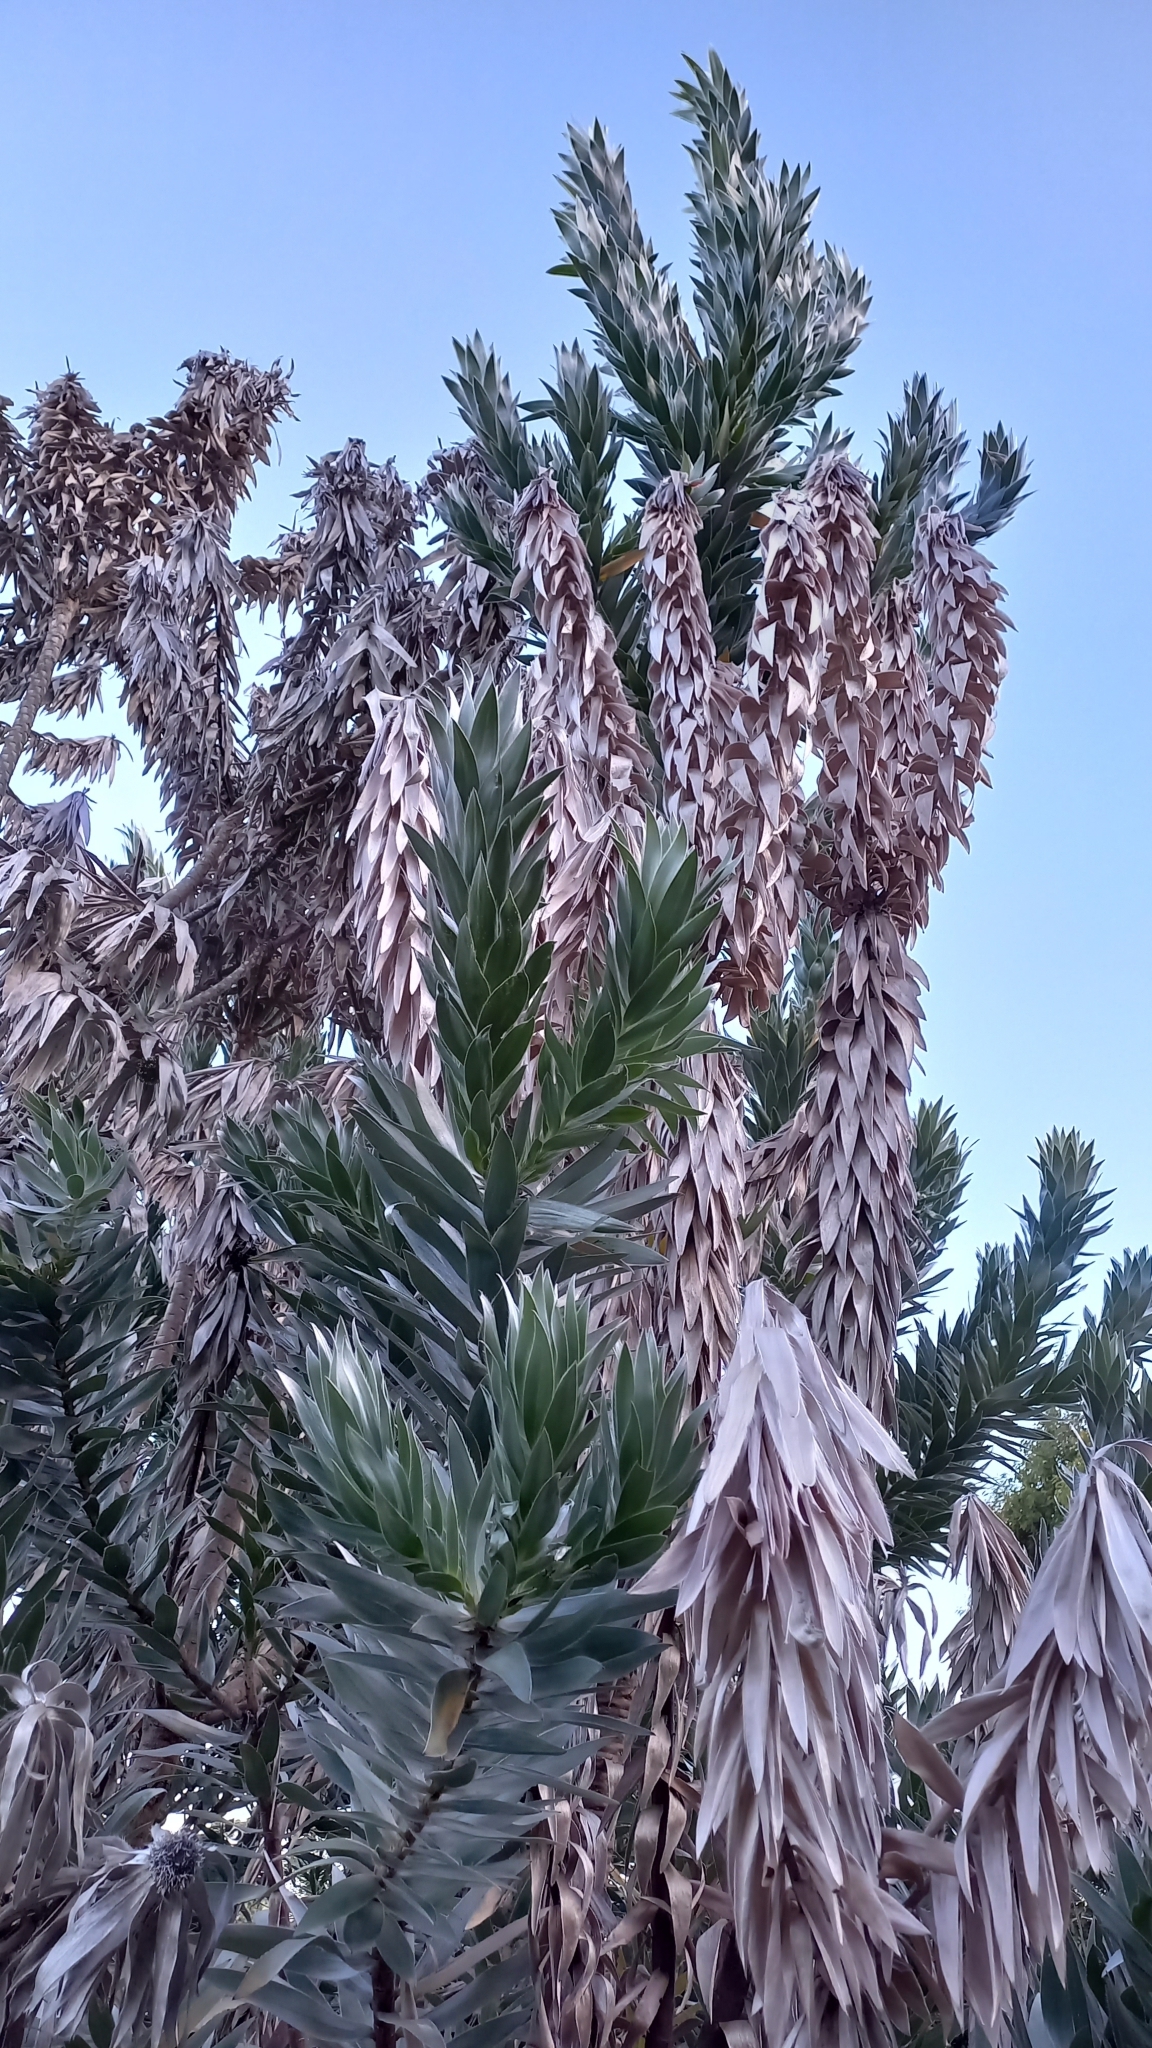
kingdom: Plantae
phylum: Tracheophyta
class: Magnoliopsida
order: Proteales
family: Proteaceae
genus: Leucadendron
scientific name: Leucadendron argenteum
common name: Cape silver tree
